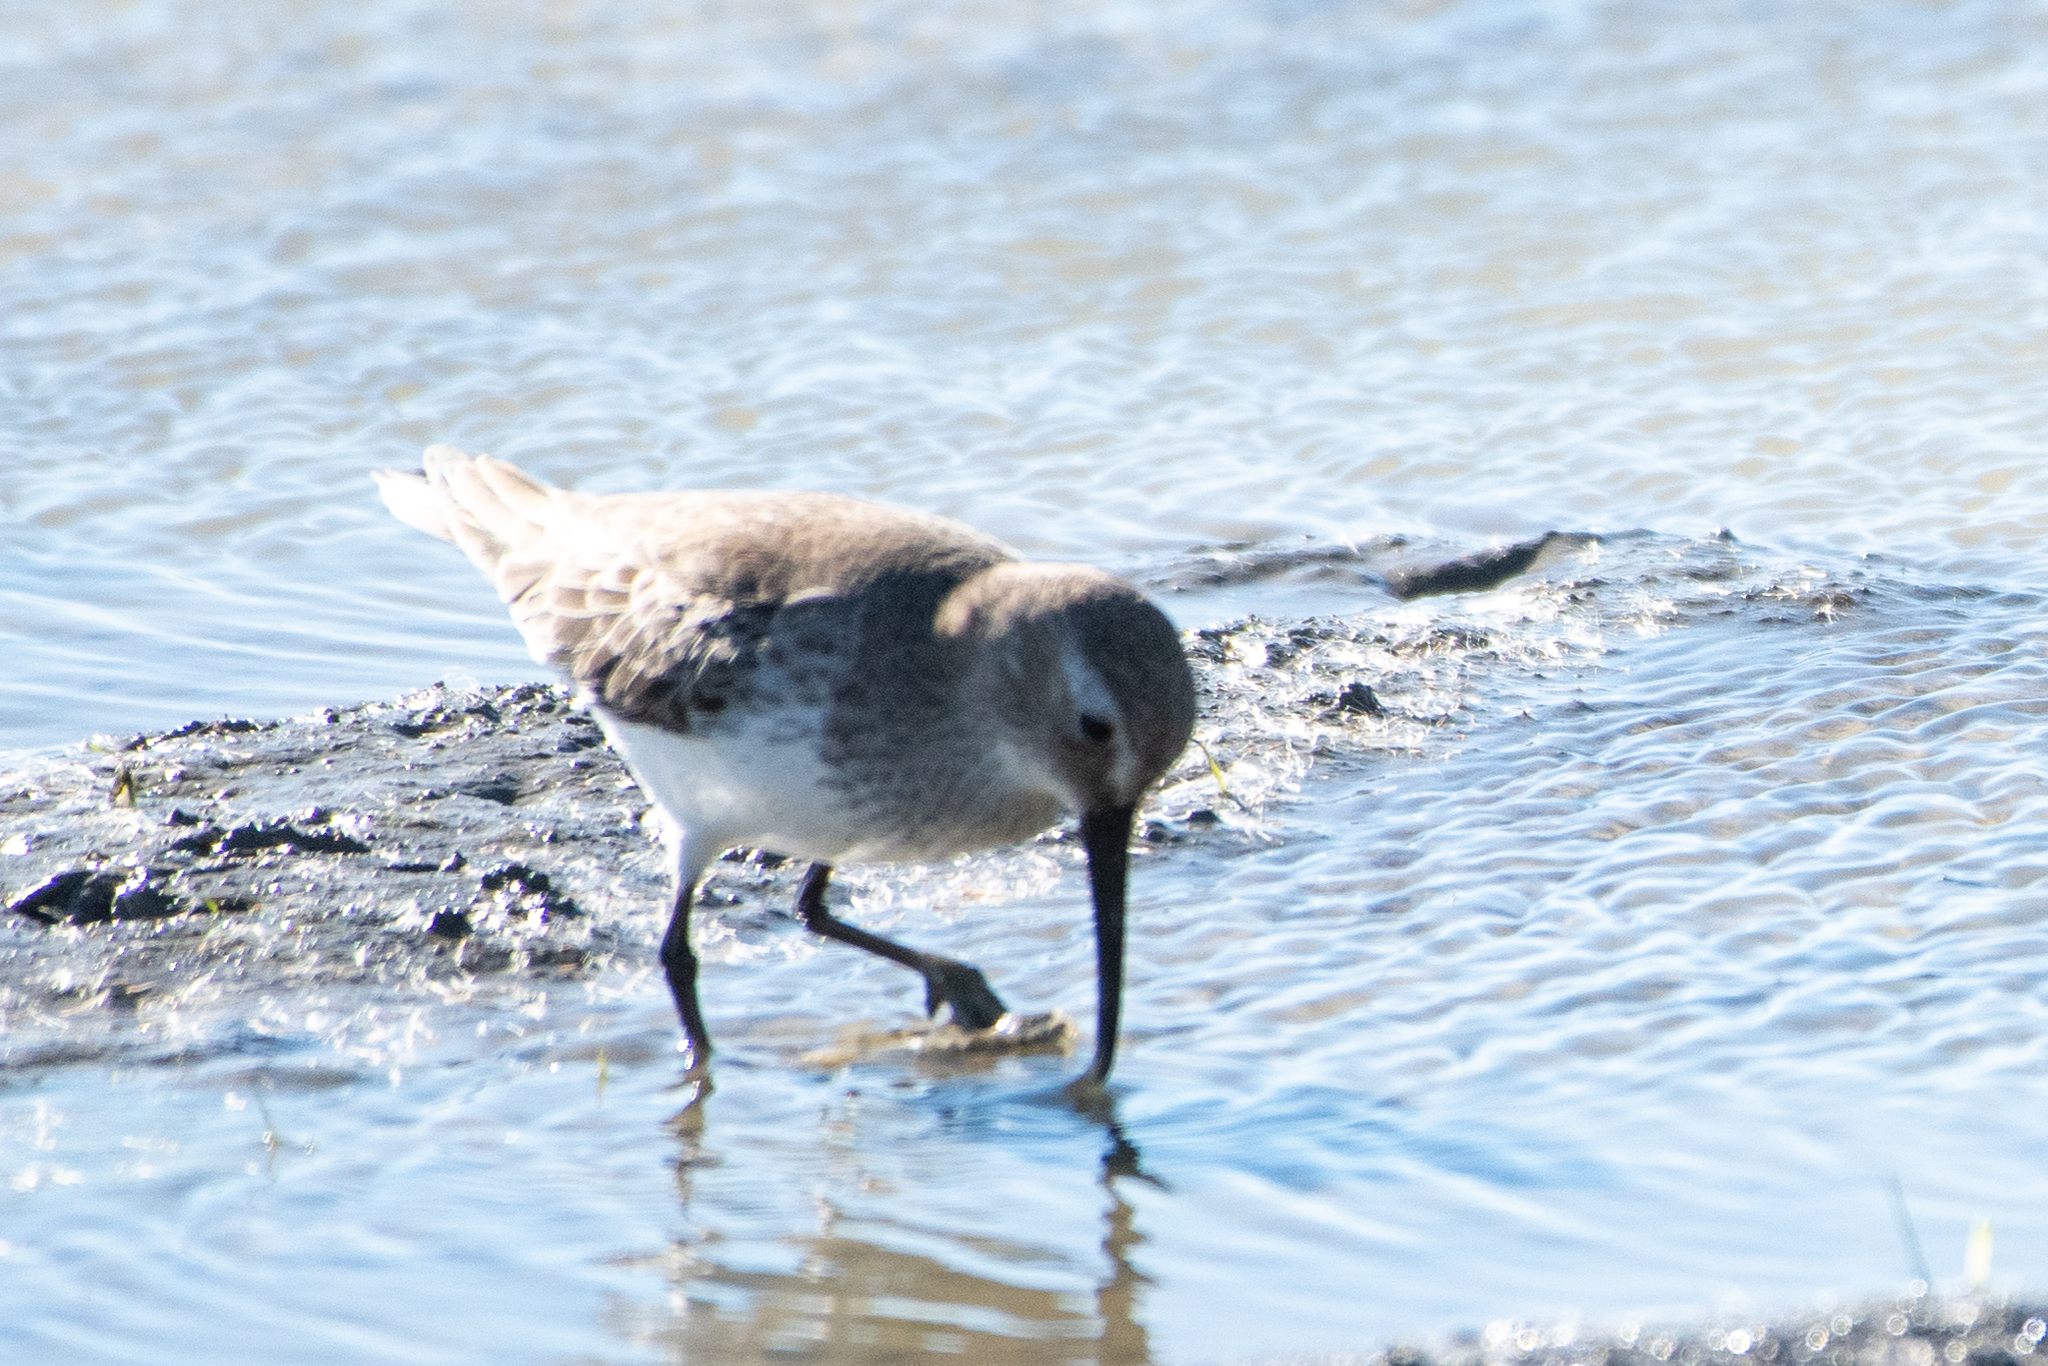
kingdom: Animalia
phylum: Chordata
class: Aves
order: Charadriiformes
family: Scolopacidae
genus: Calidris
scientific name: Calidris alpina
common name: Dunlin
